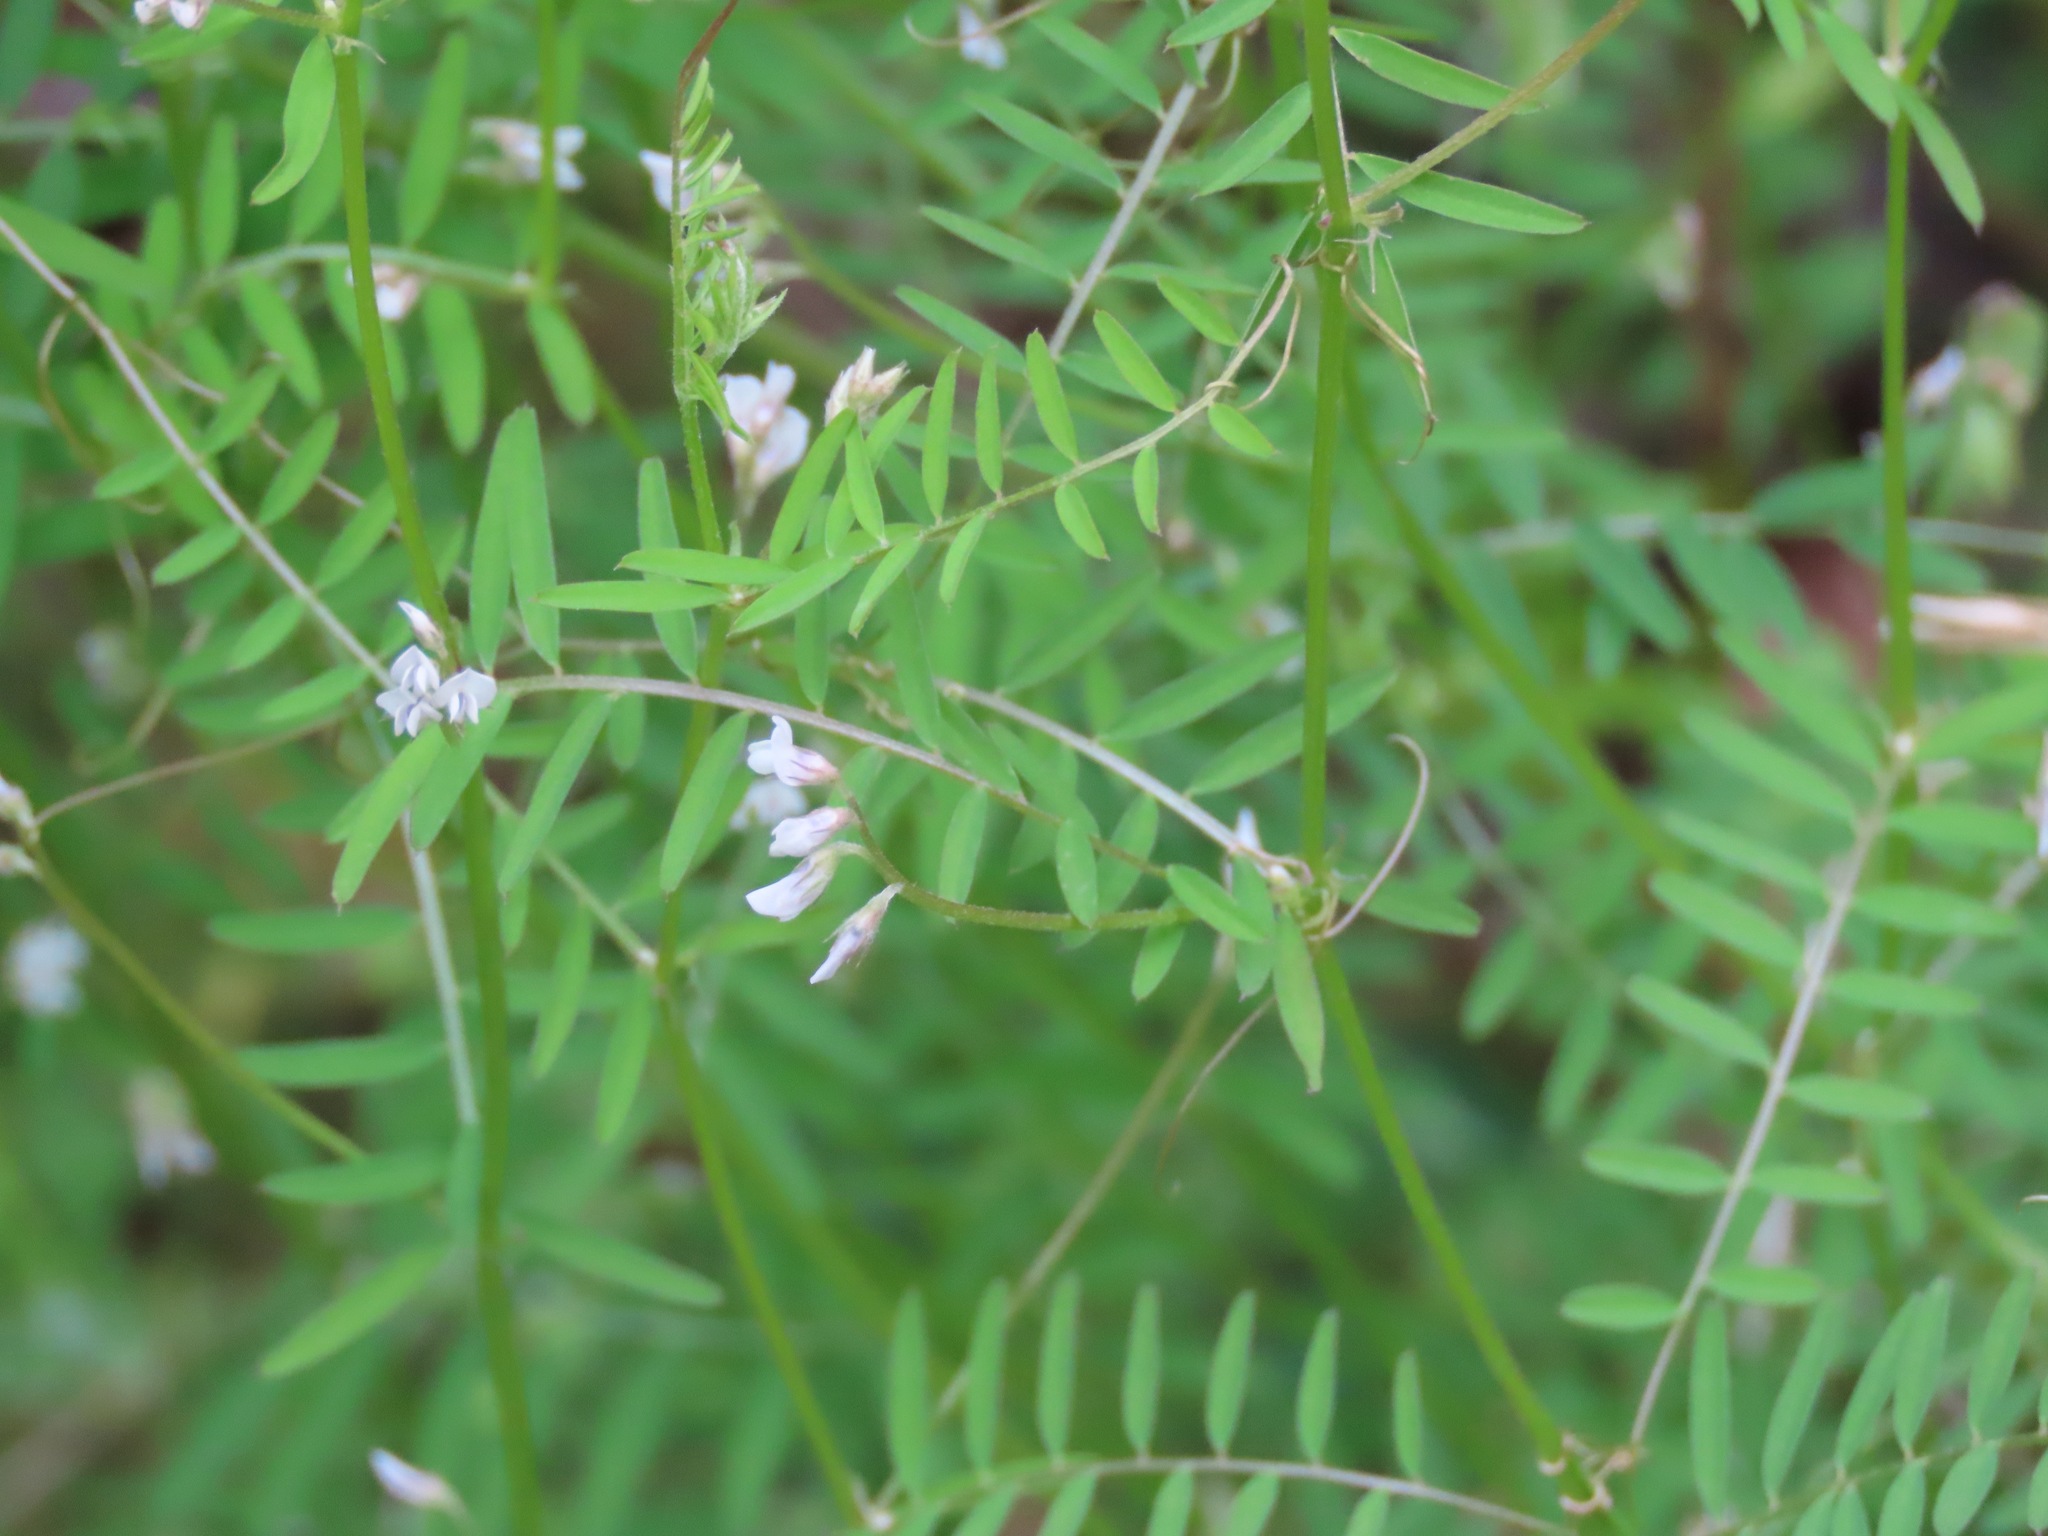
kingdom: Plantae
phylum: Tracheophyta
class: Magnoliopsida
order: Fabales
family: Fabaceae
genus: Vicia
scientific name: Vicia hirsuta
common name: Tiny vetch
